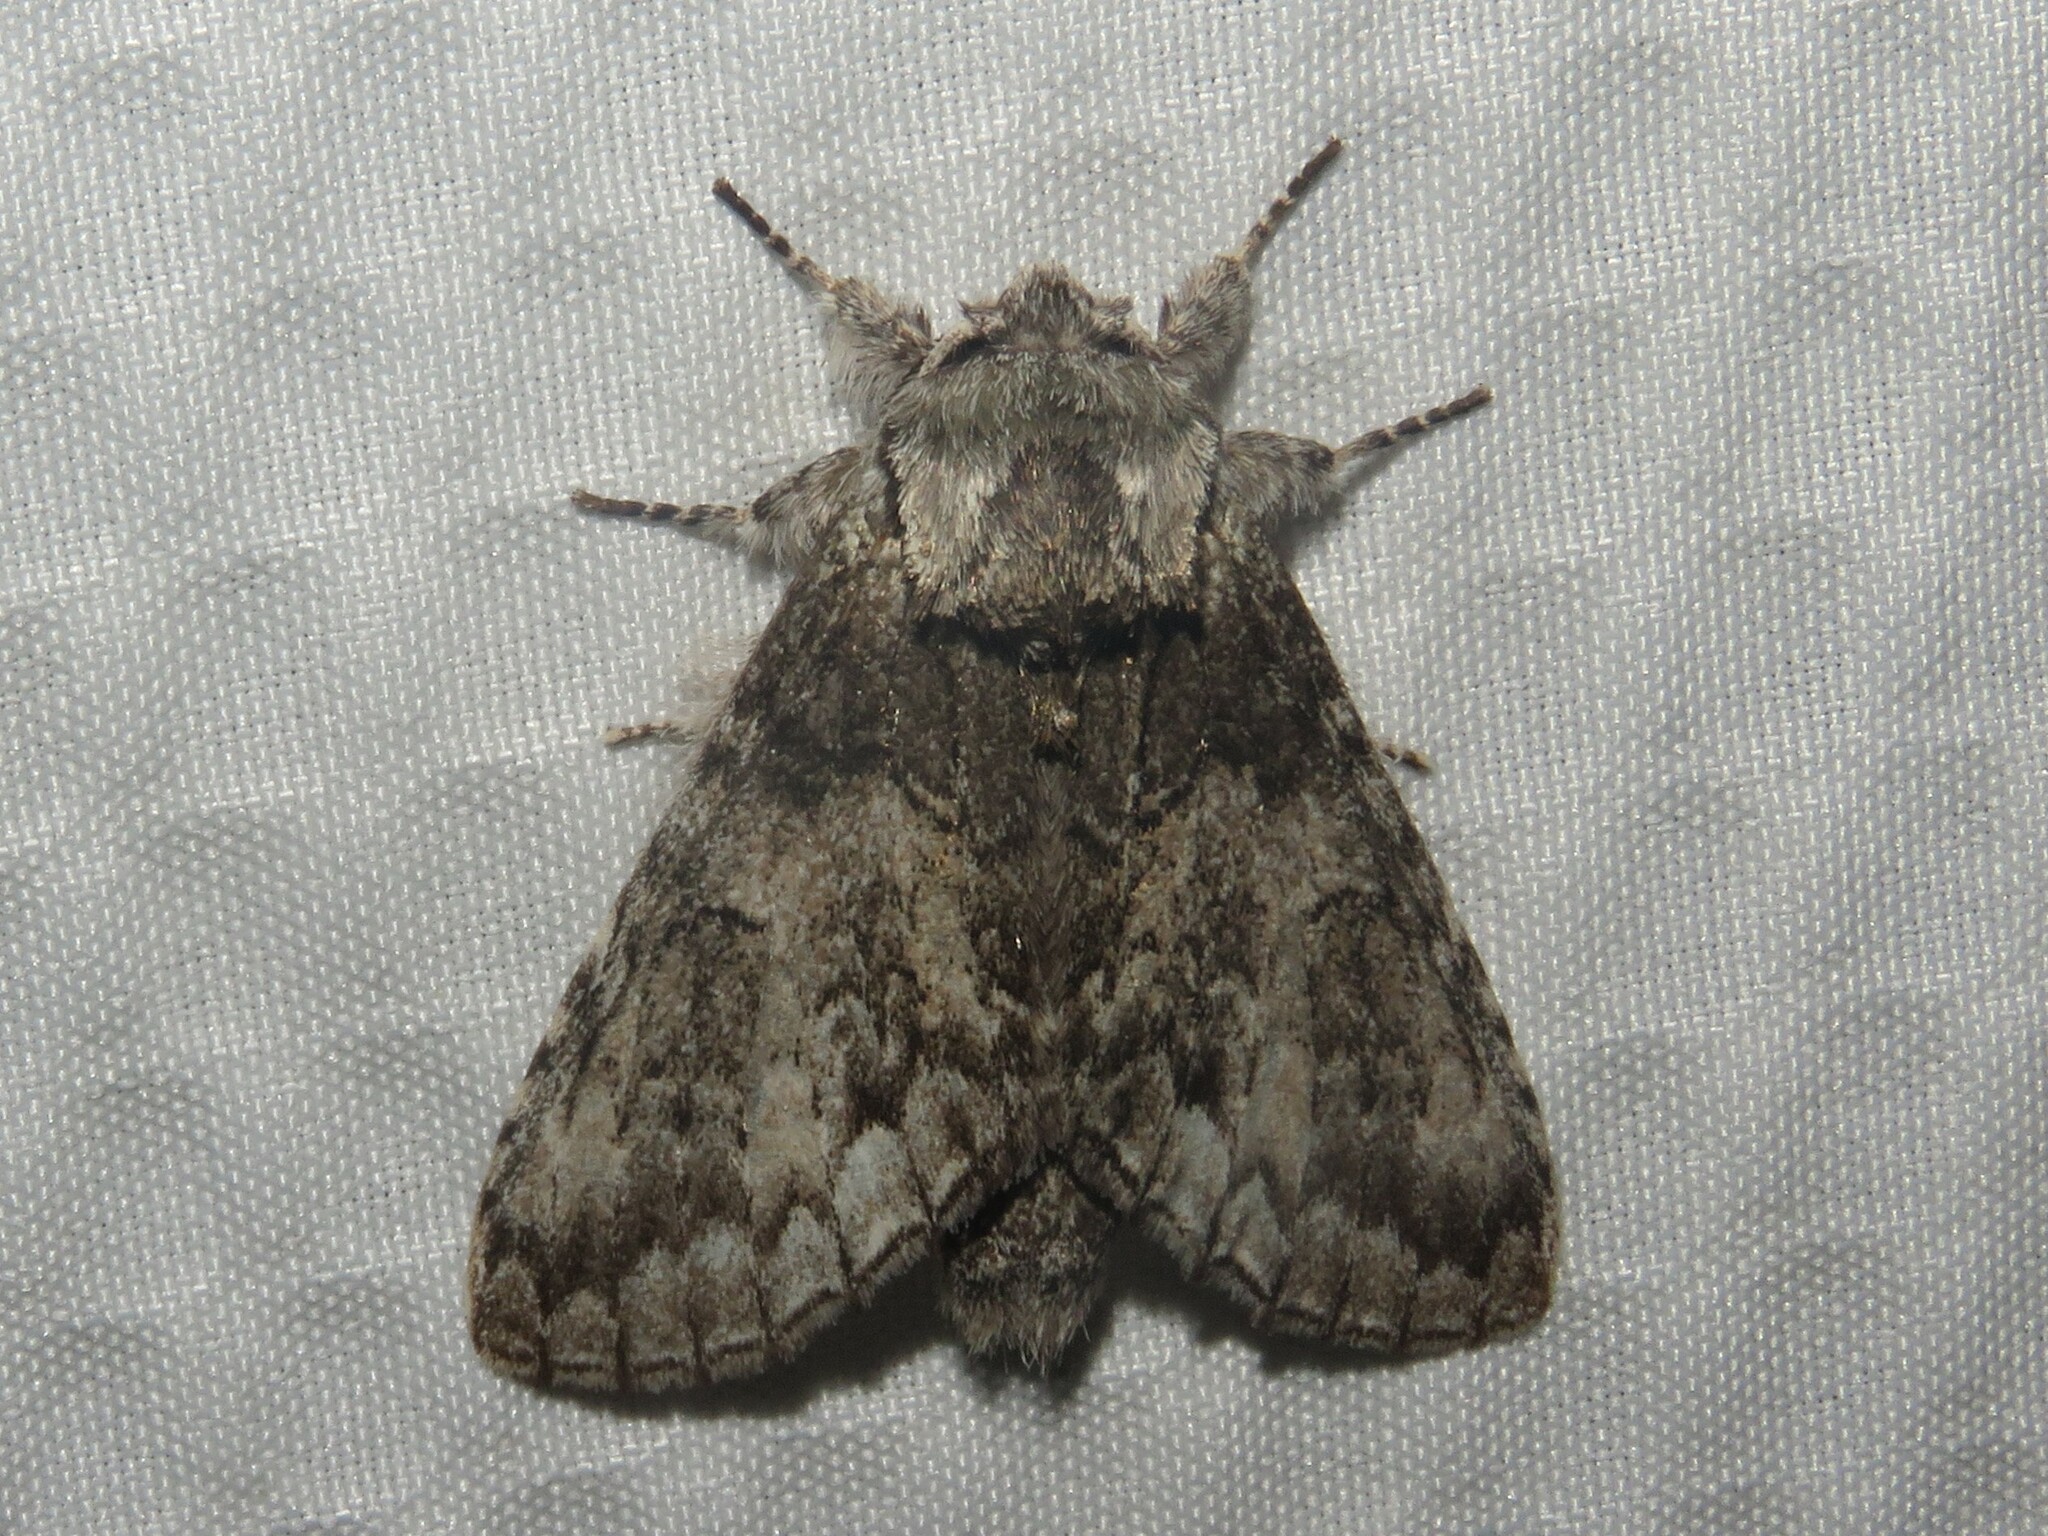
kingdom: Animalia
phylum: Arthropoda
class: Insecta
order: Lepidoptera
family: Notodontidae
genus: Macrurocampa
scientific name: Macrurocampa marthesia
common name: Mottled prominent
